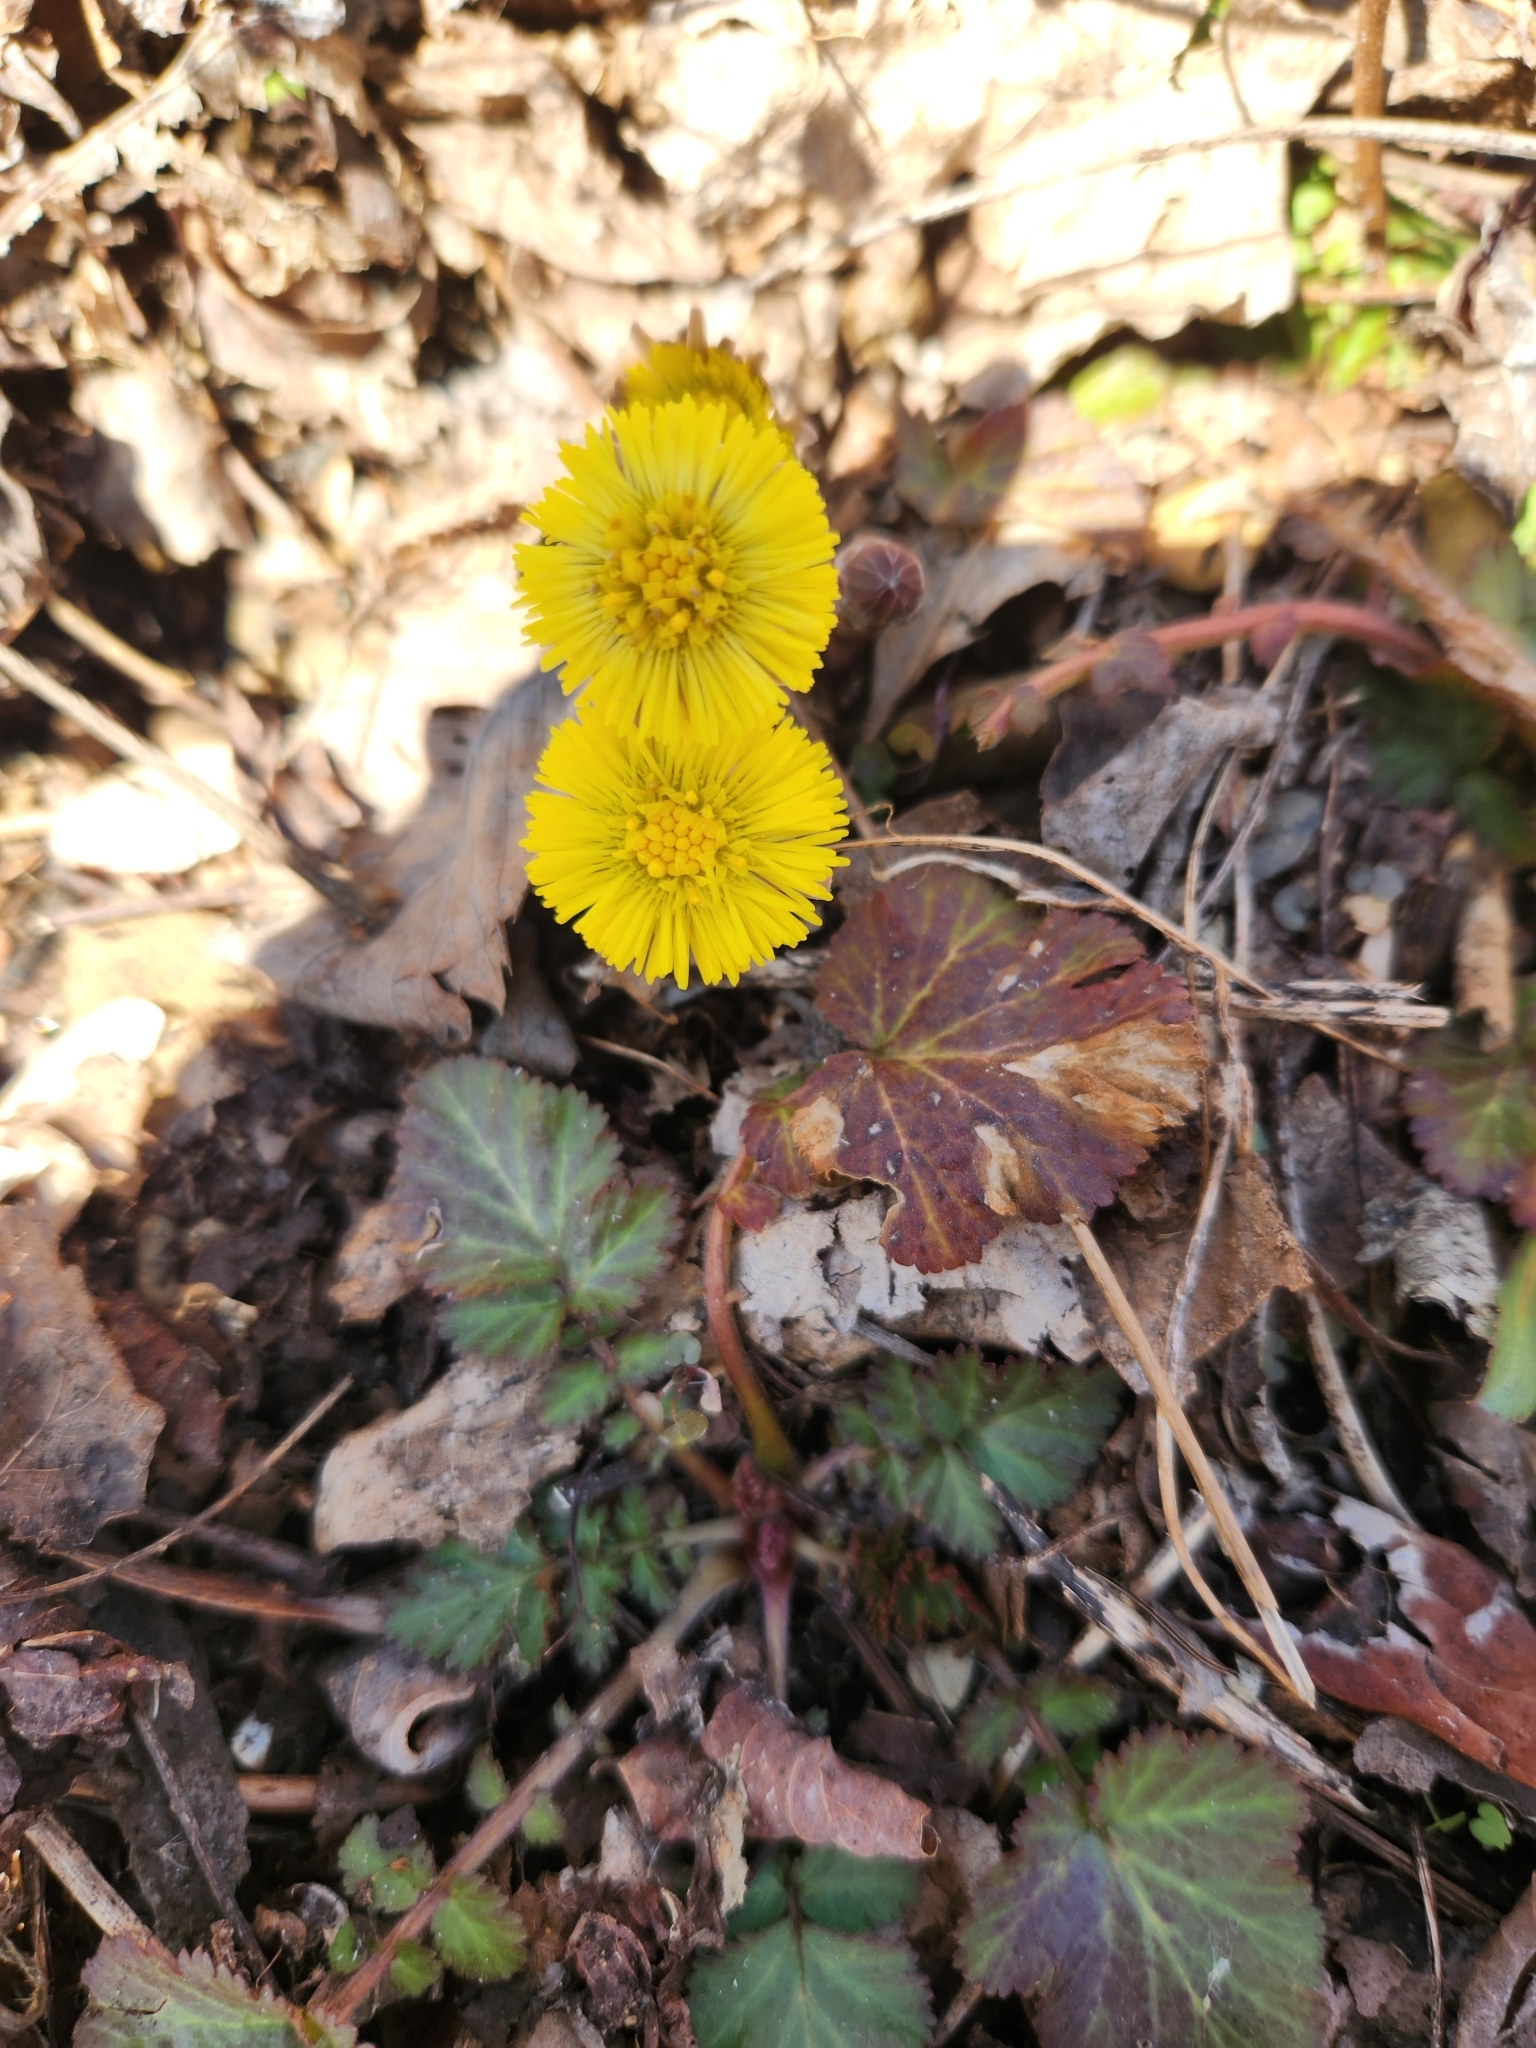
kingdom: Plantae
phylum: Tracheophyta
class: Magnoliopsida
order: Asterales
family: Asteraceae
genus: Tussilago
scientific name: Tussilago farfara
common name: Coltsfoot
